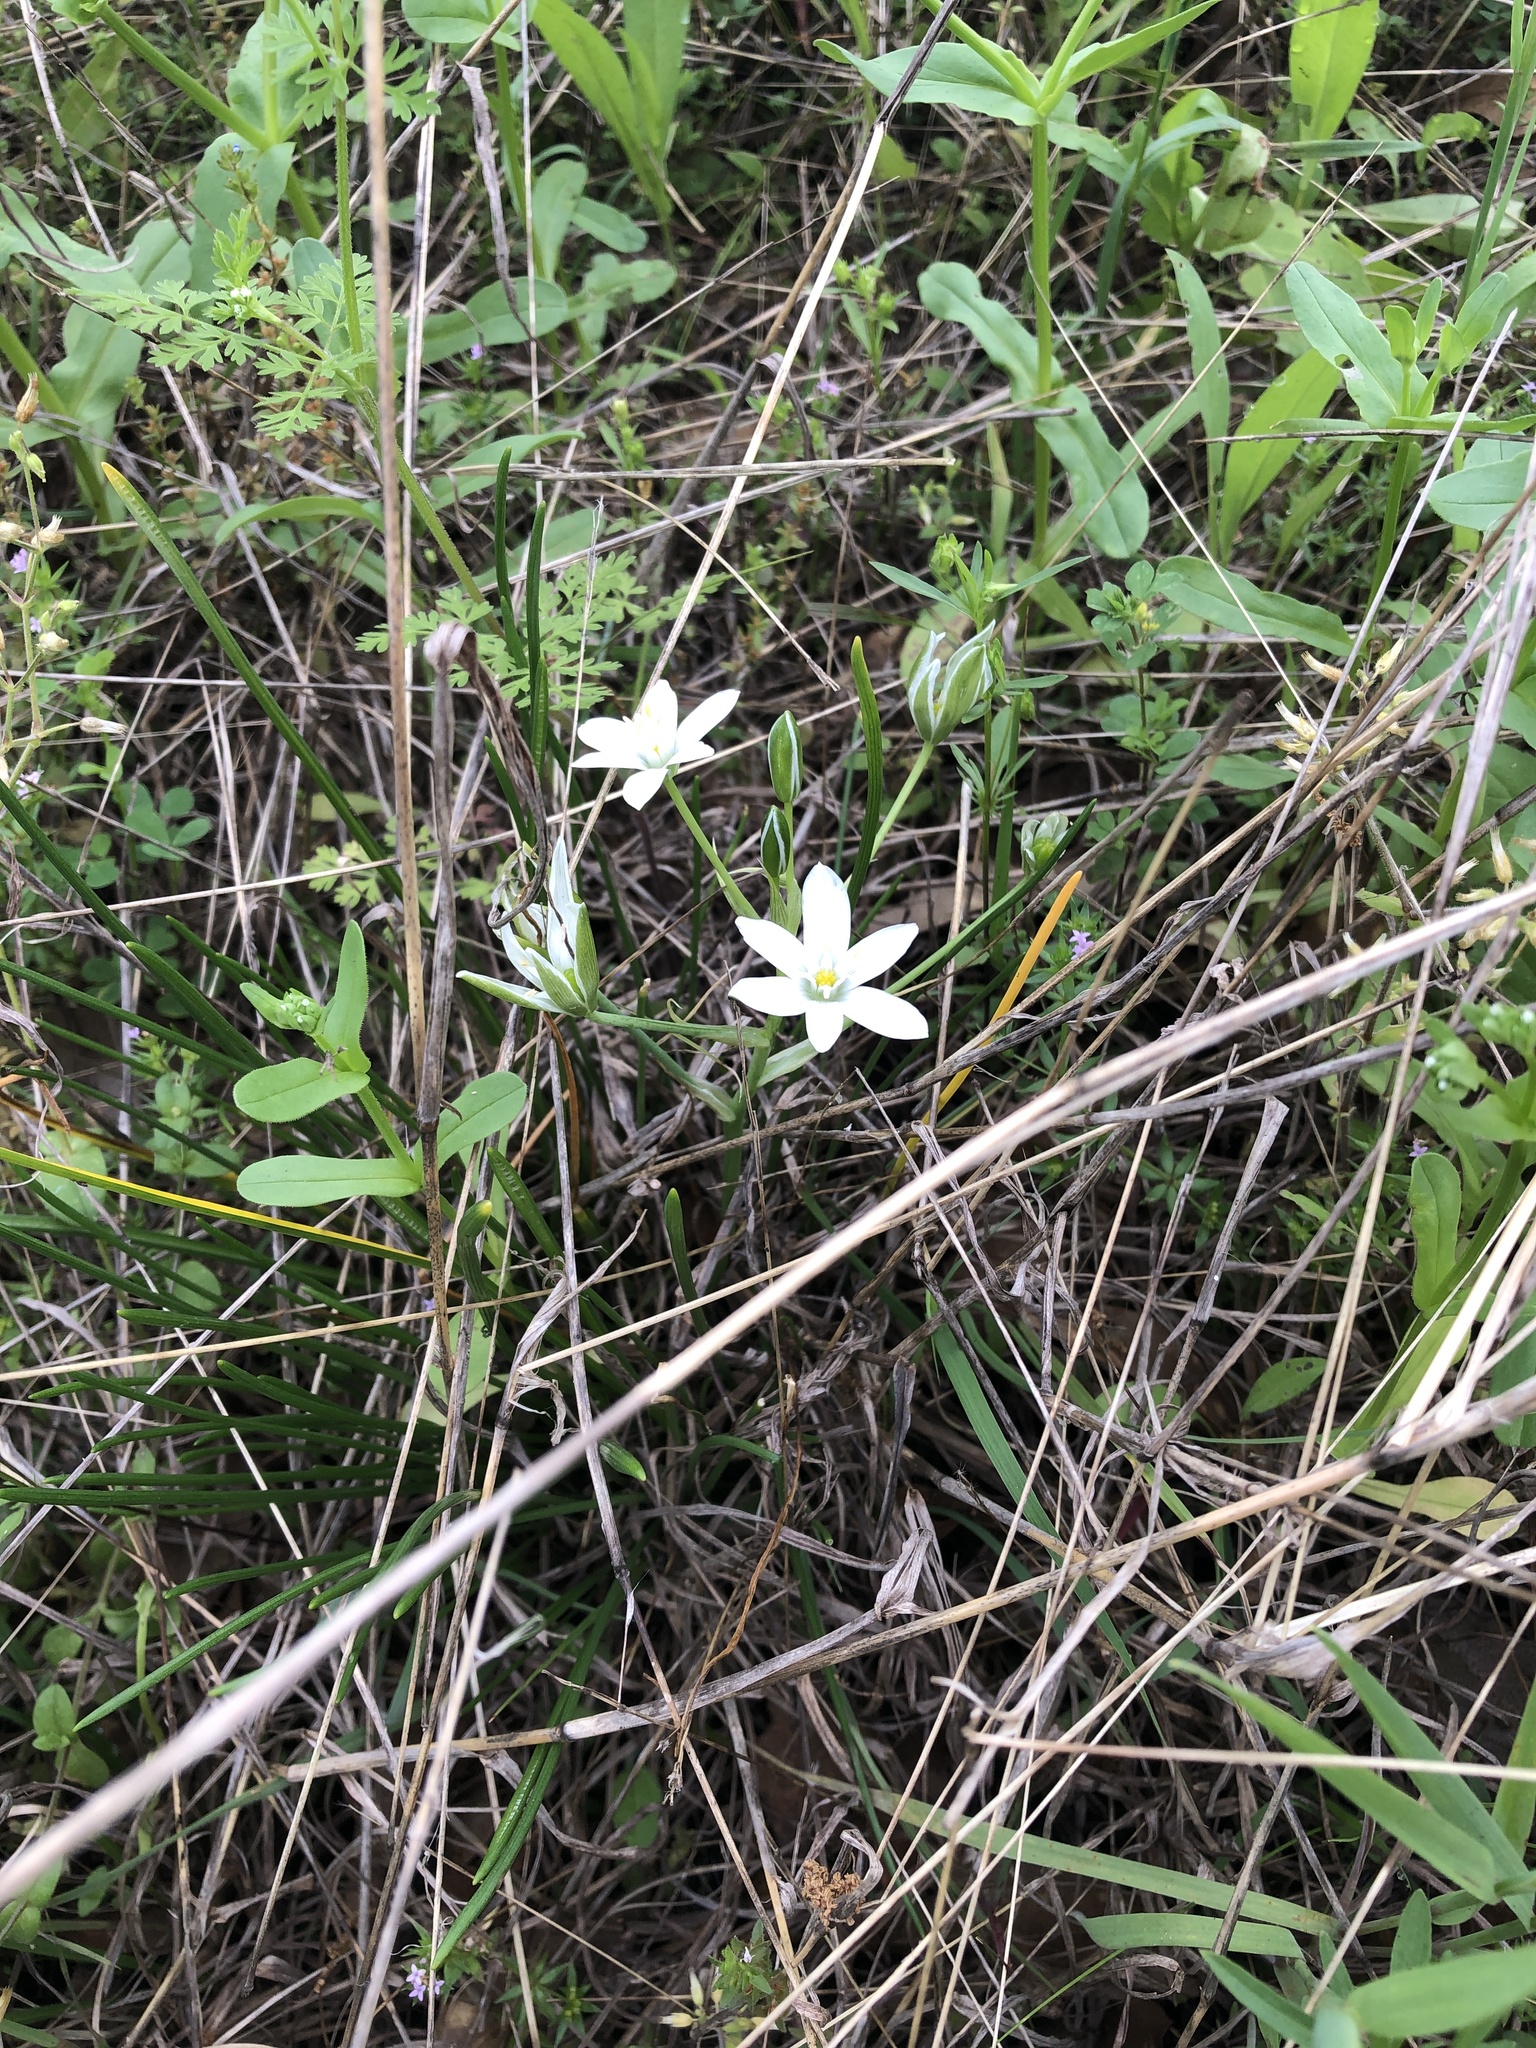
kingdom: Plantae
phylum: Tracheophyta
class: Liliopsida
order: Asparagales
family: Asparagaceae
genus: Ornithogalum
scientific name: Ornithogalum umbellatum
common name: Garden star-of-bethlehem
